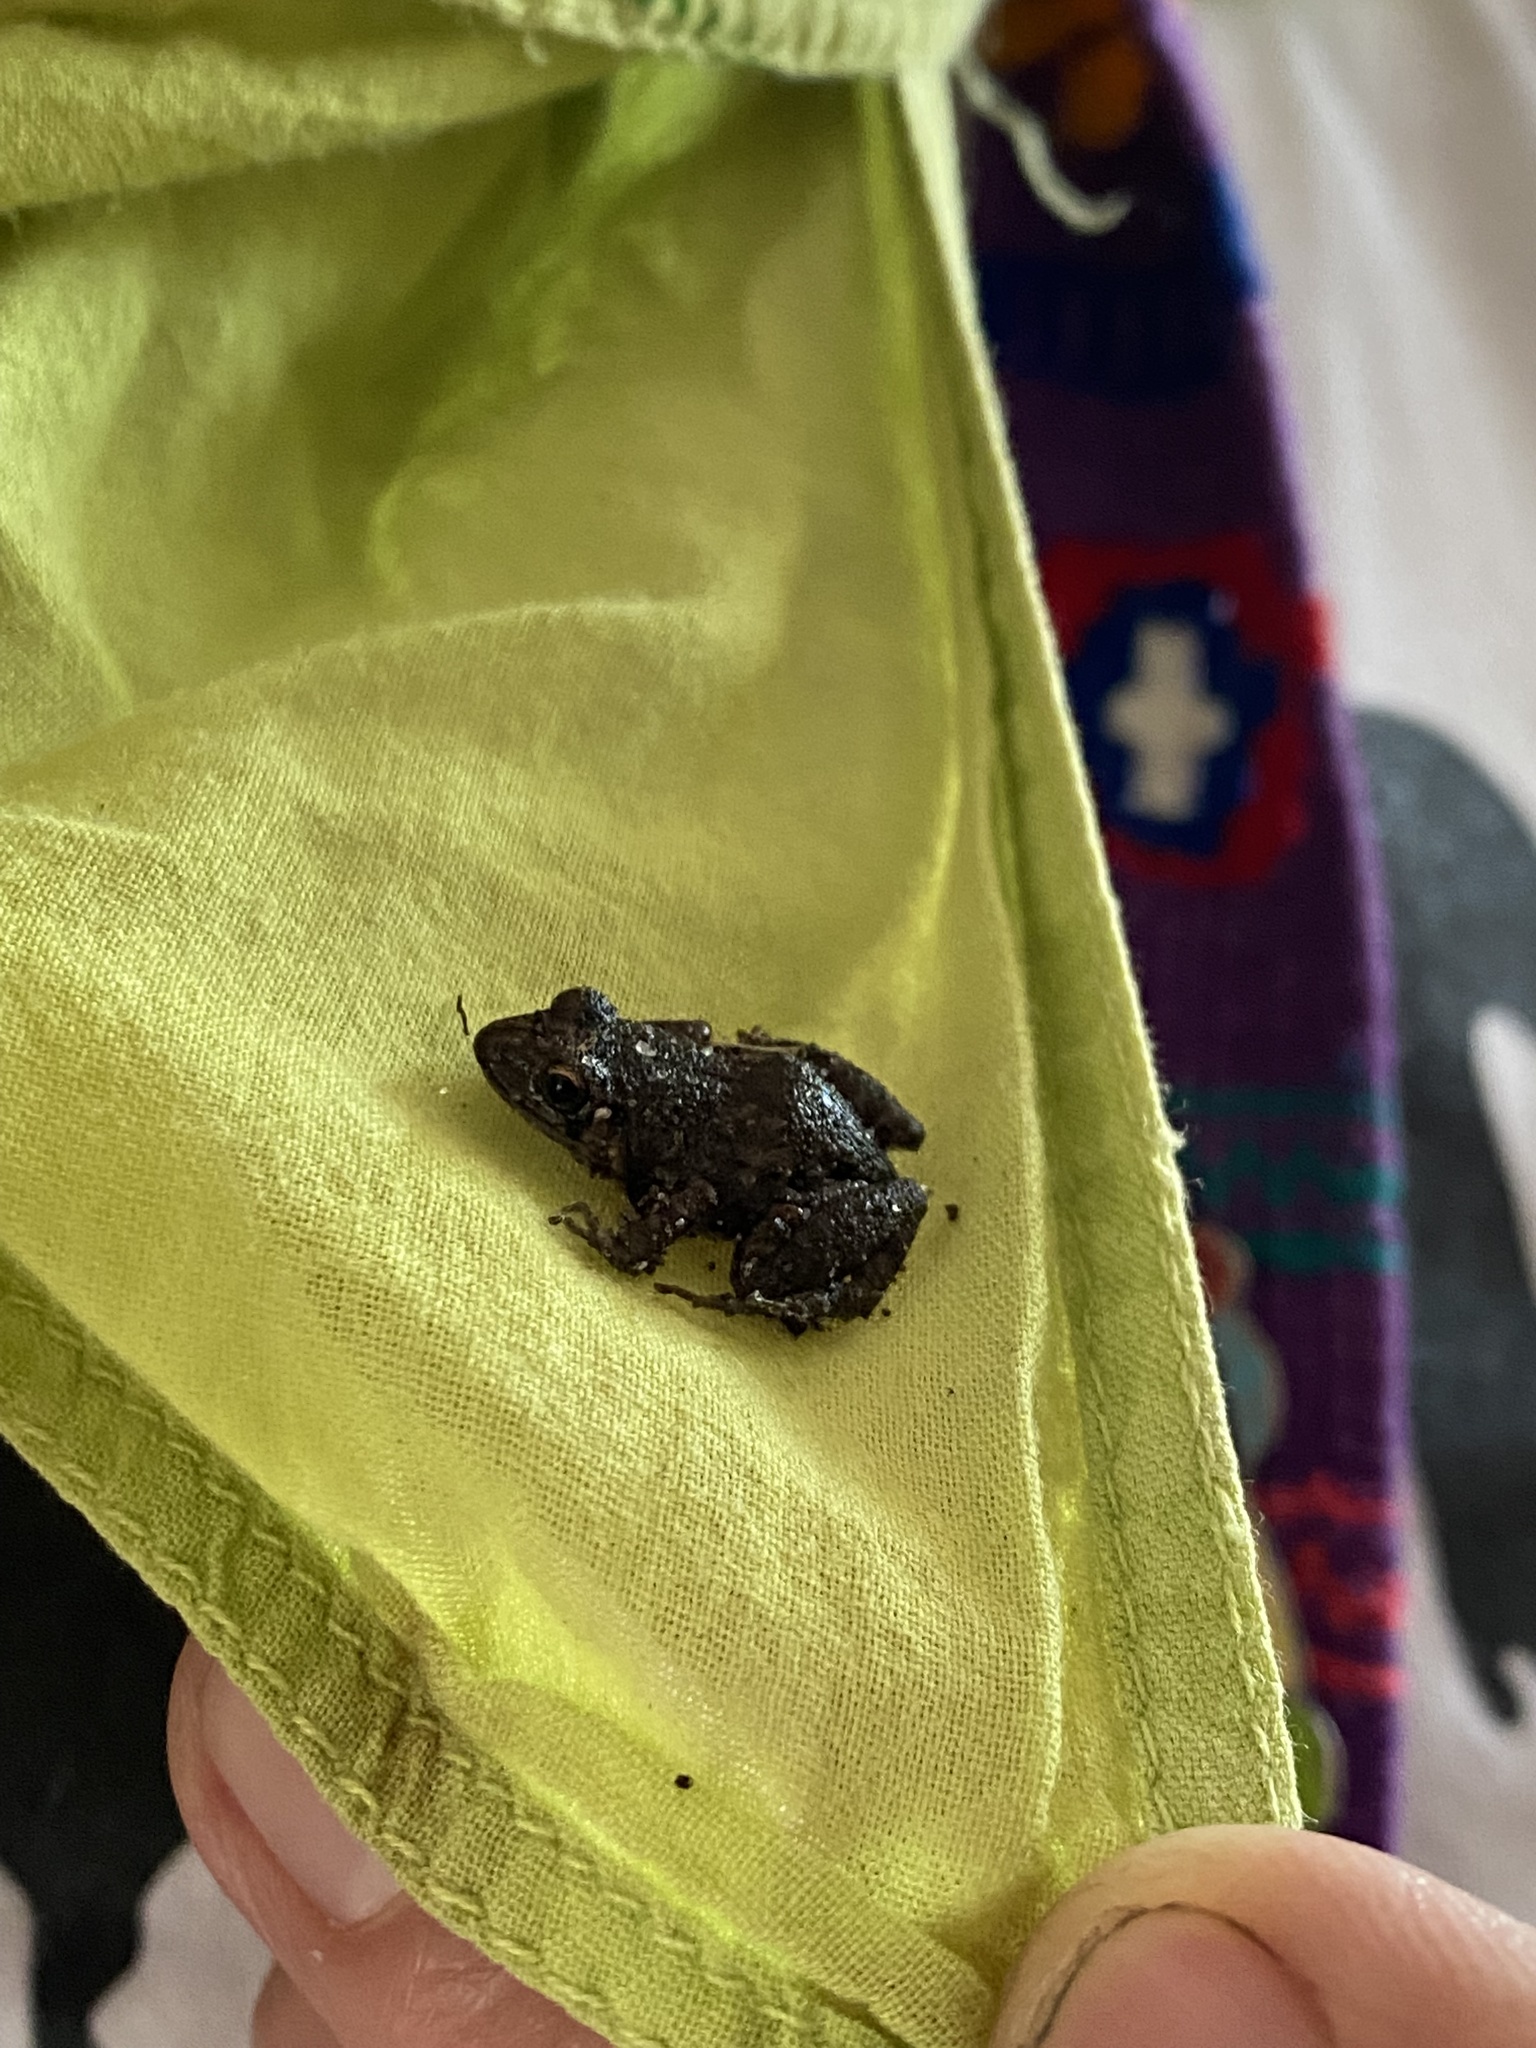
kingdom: Animalia
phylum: Chordata
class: Amphibia
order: Anura
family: Eleutherodactylidae
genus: Eleutherodactylus
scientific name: Eleutherodactylus planirostris
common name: Greenhouse frog
